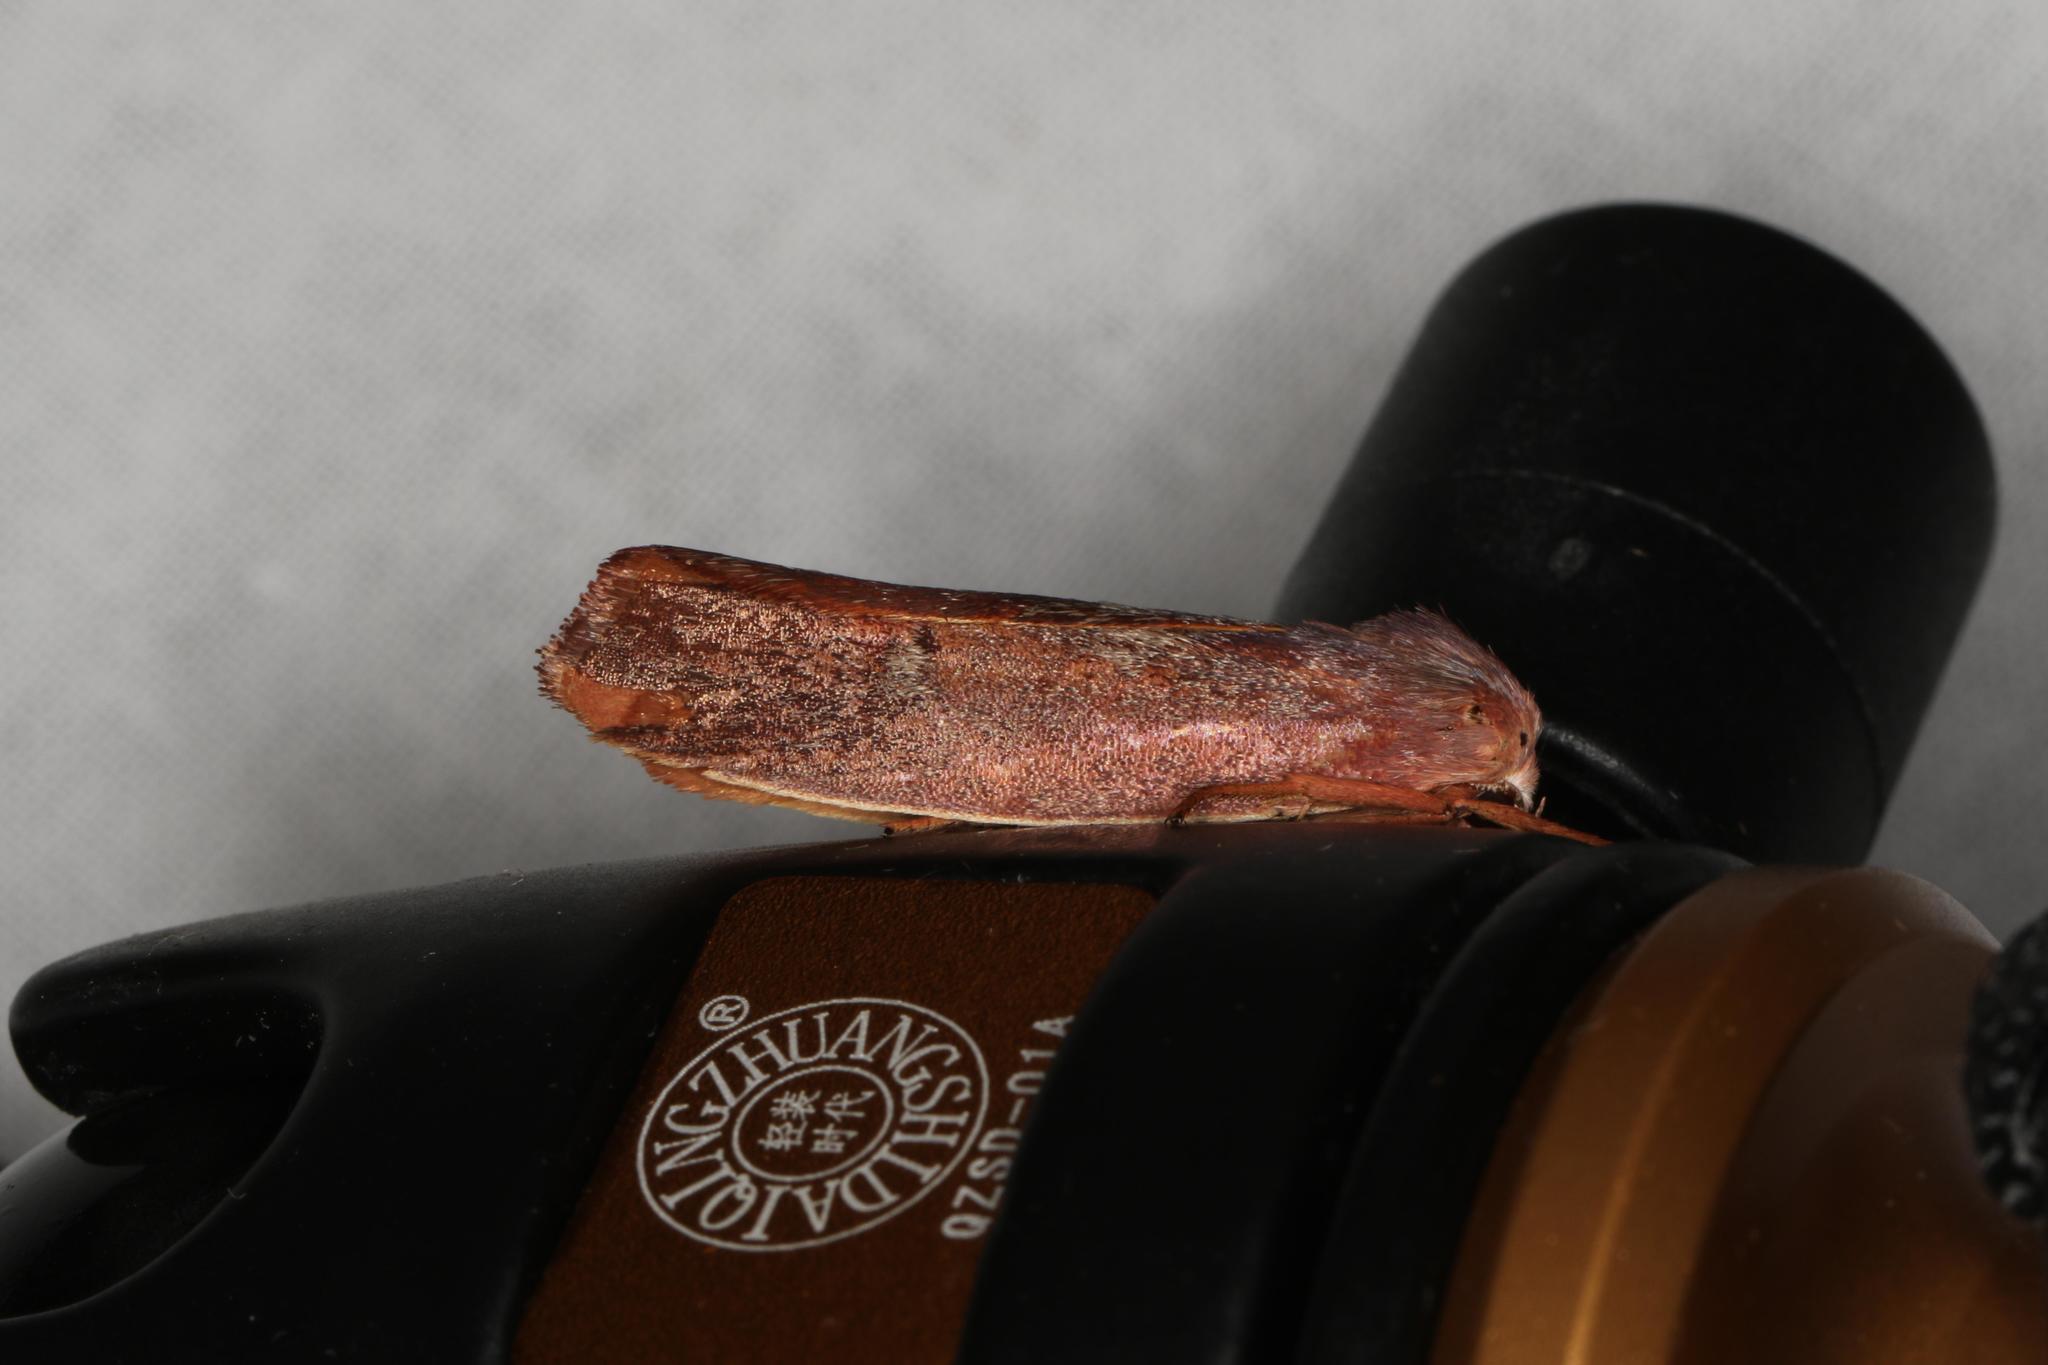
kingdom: Animalia
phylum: Arthropoda
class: Insecta
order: Lepidoptera
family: Xyloryctidae
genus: Cryptophasa
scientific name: Cryptophasa rubescens
